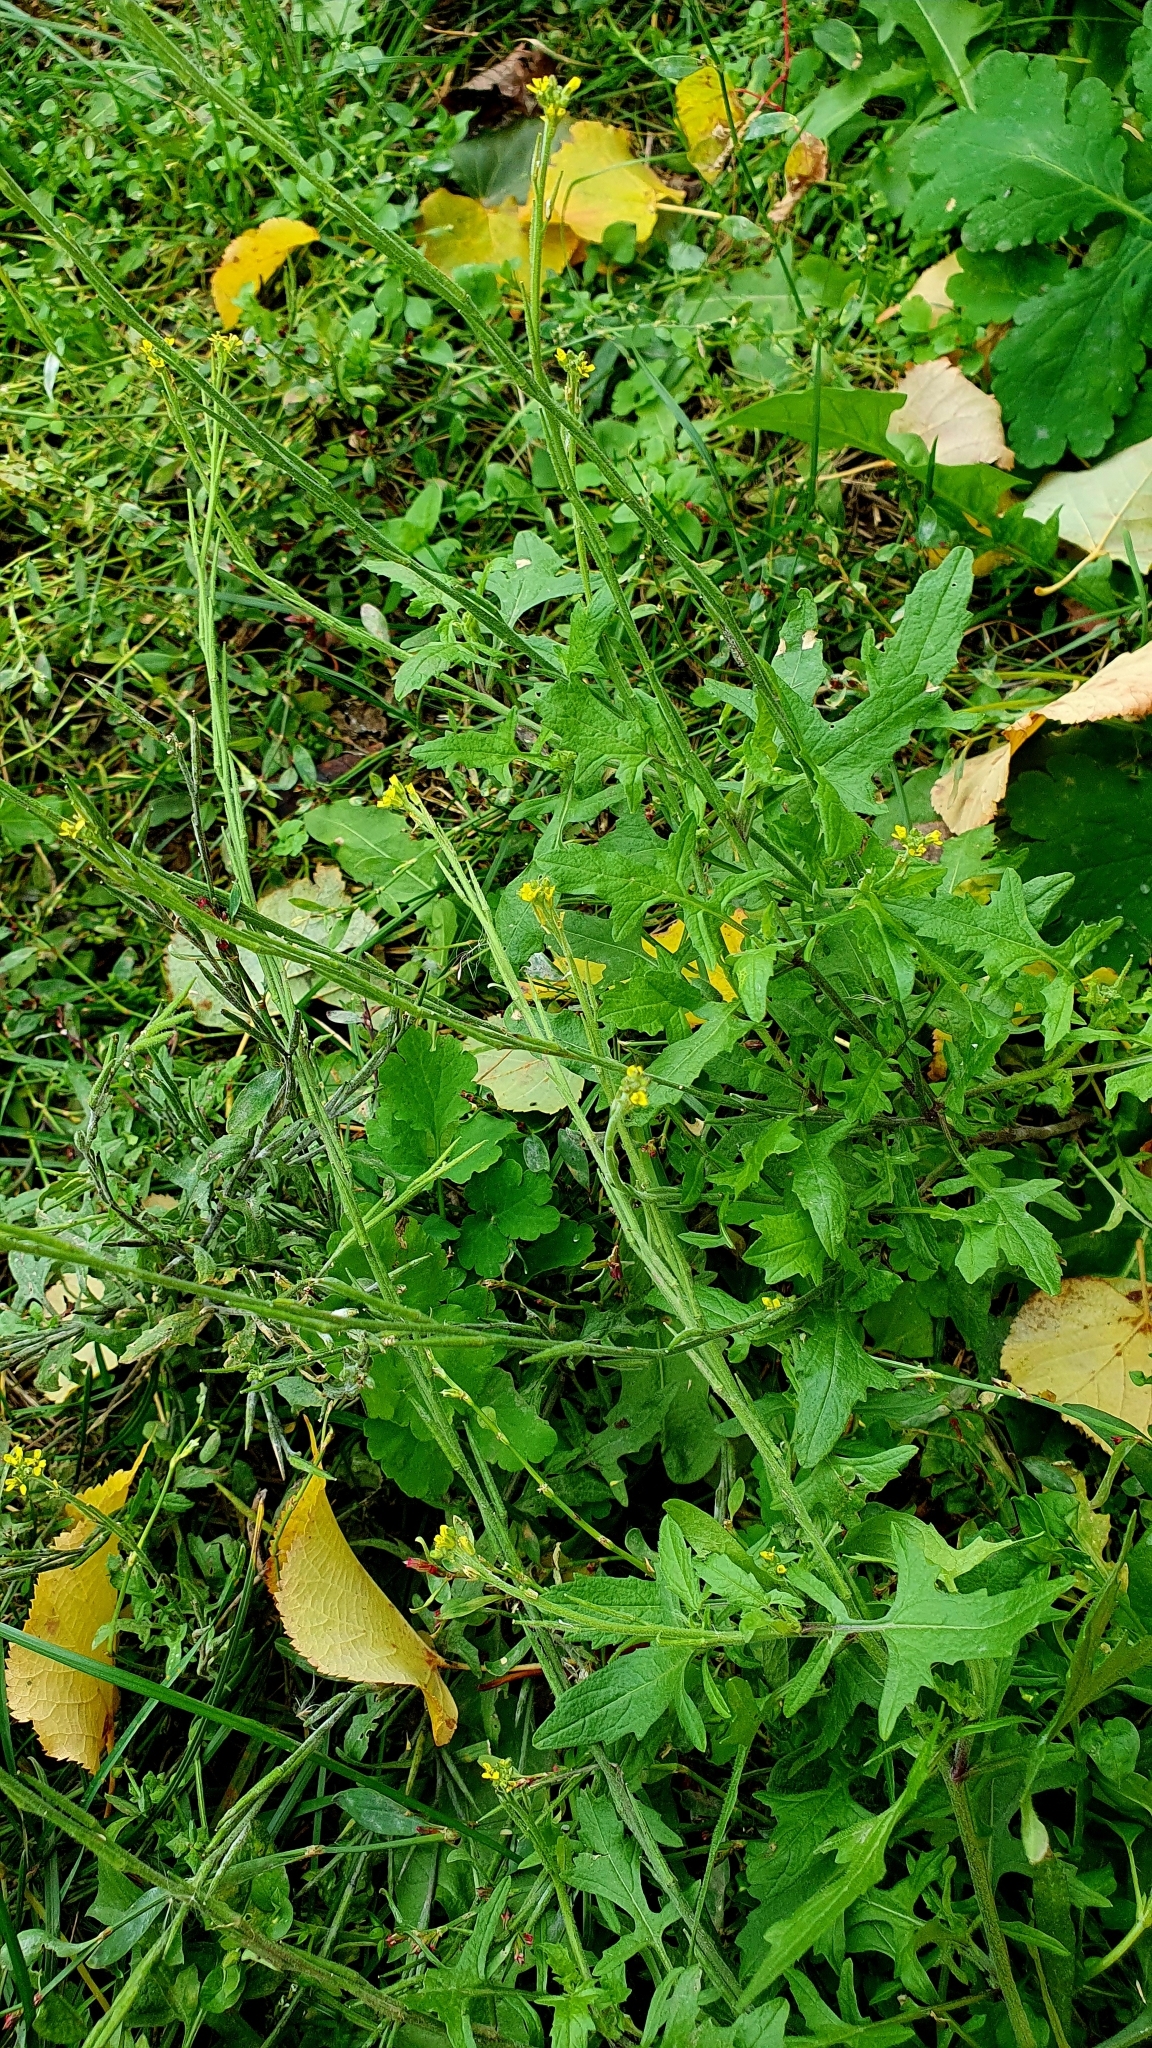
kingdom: Plantae
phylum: Tracheophyta
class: Magnoliopsida
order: Brassicales
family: Brassicaceae
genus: Sisymbrium
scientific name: Sisymbrium officinale
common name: Hedge mustard
